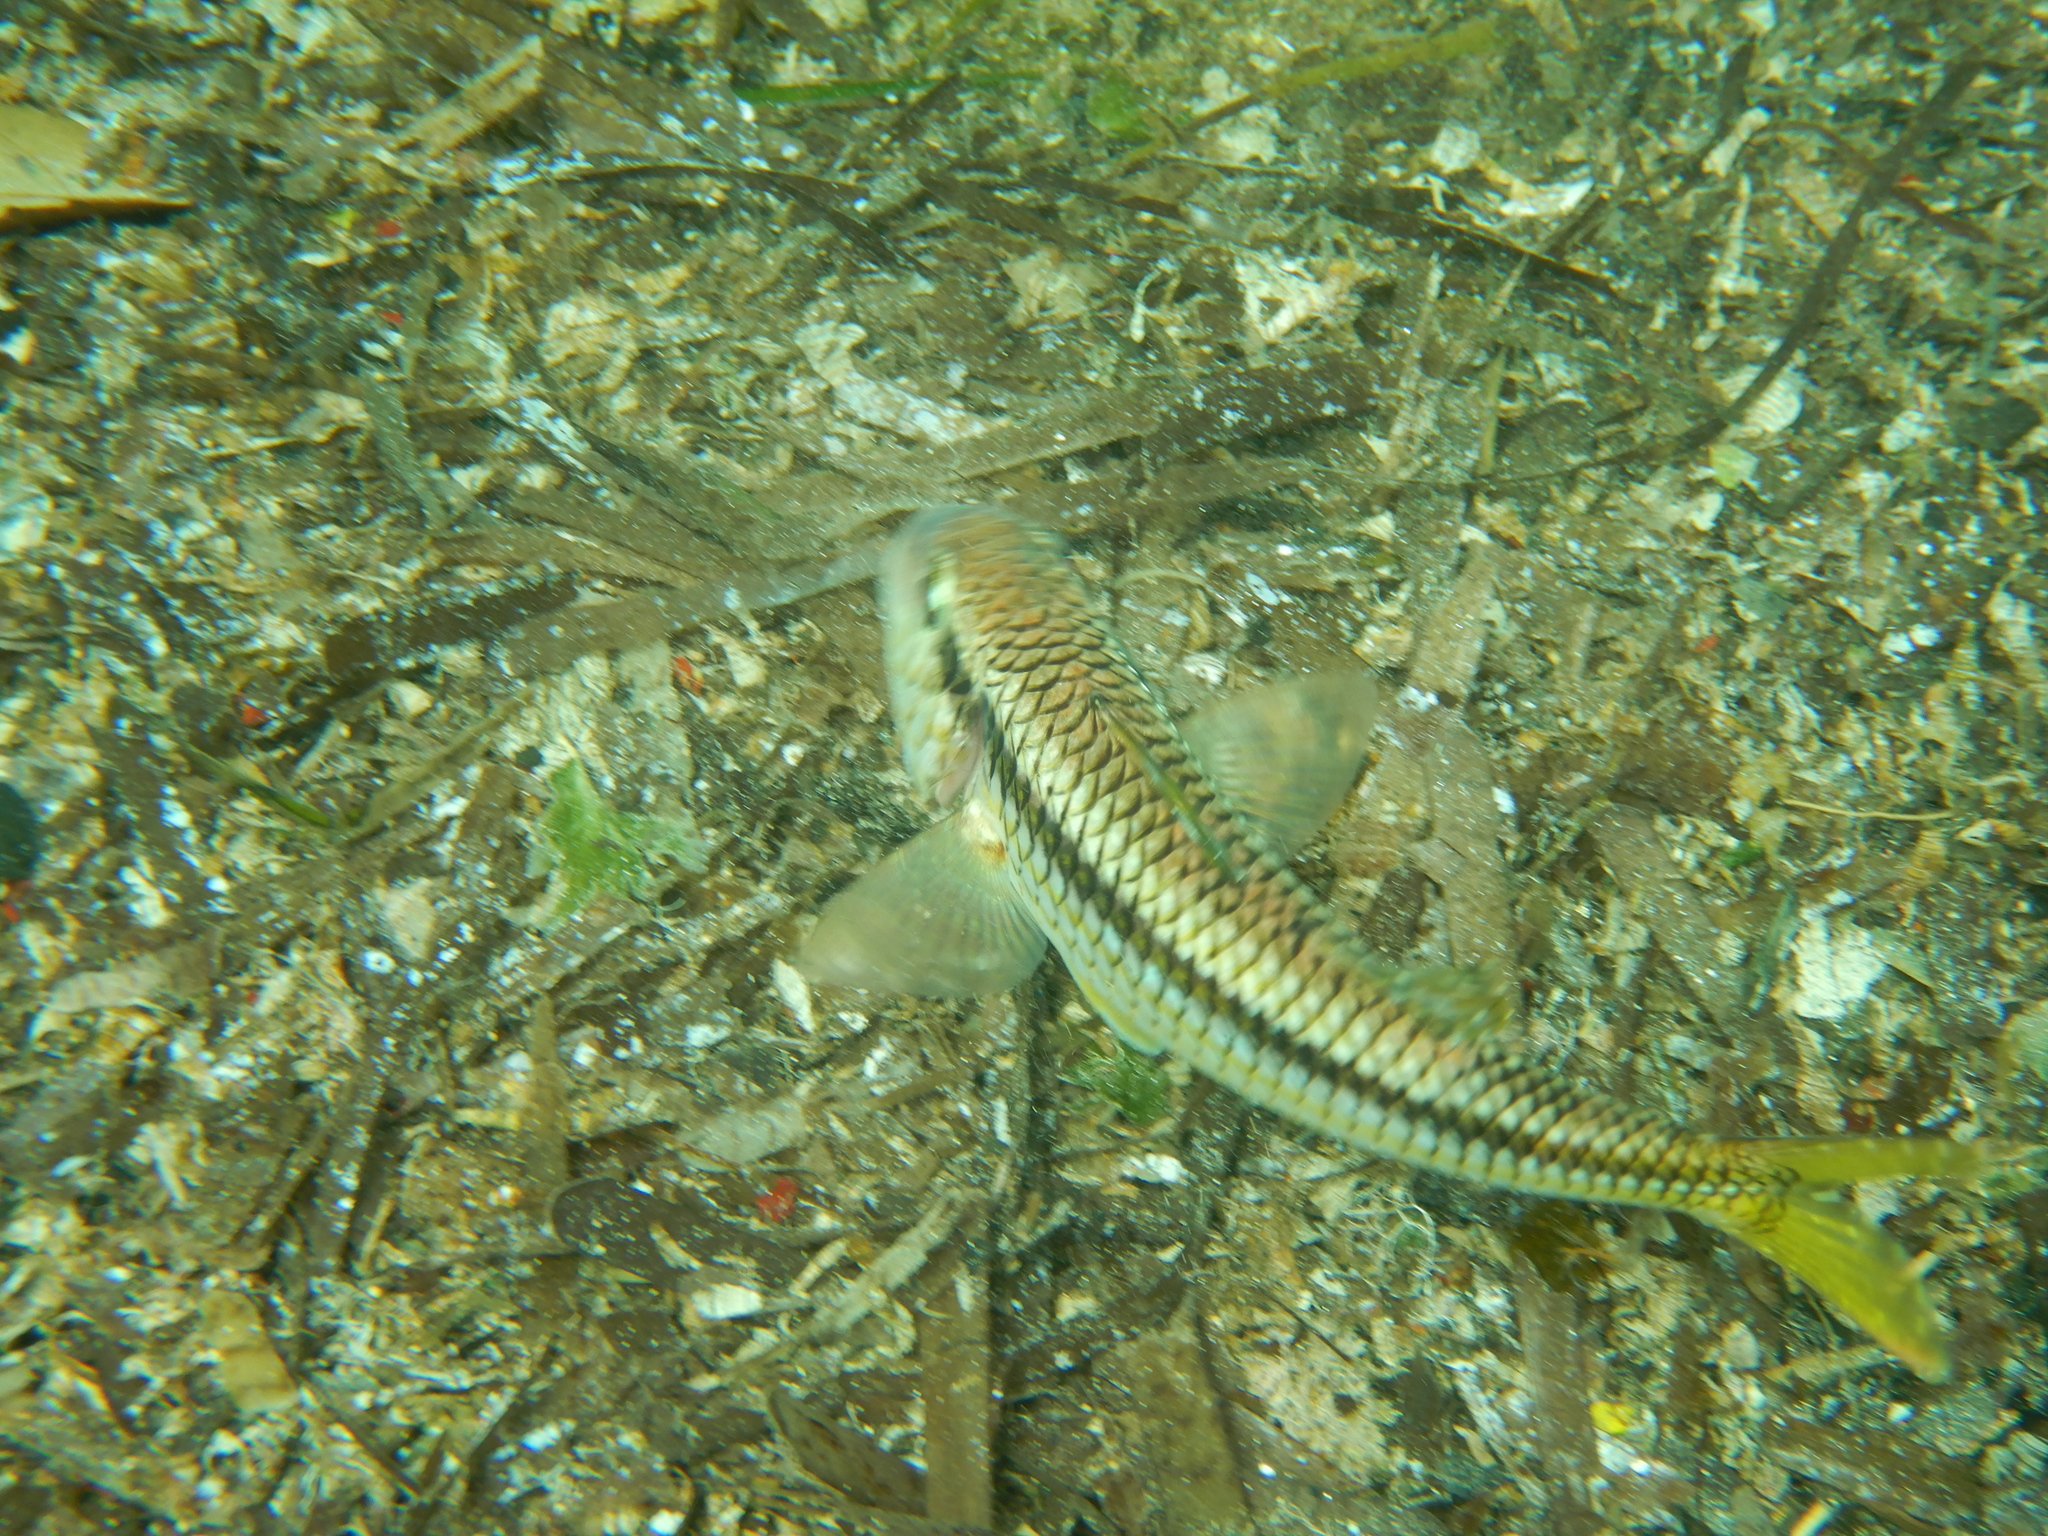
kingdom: Animalia
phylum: Chordata
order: Perciformes
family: Mullidae
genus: Mullus
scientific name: Mullus surmuletus
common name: Red mullet
